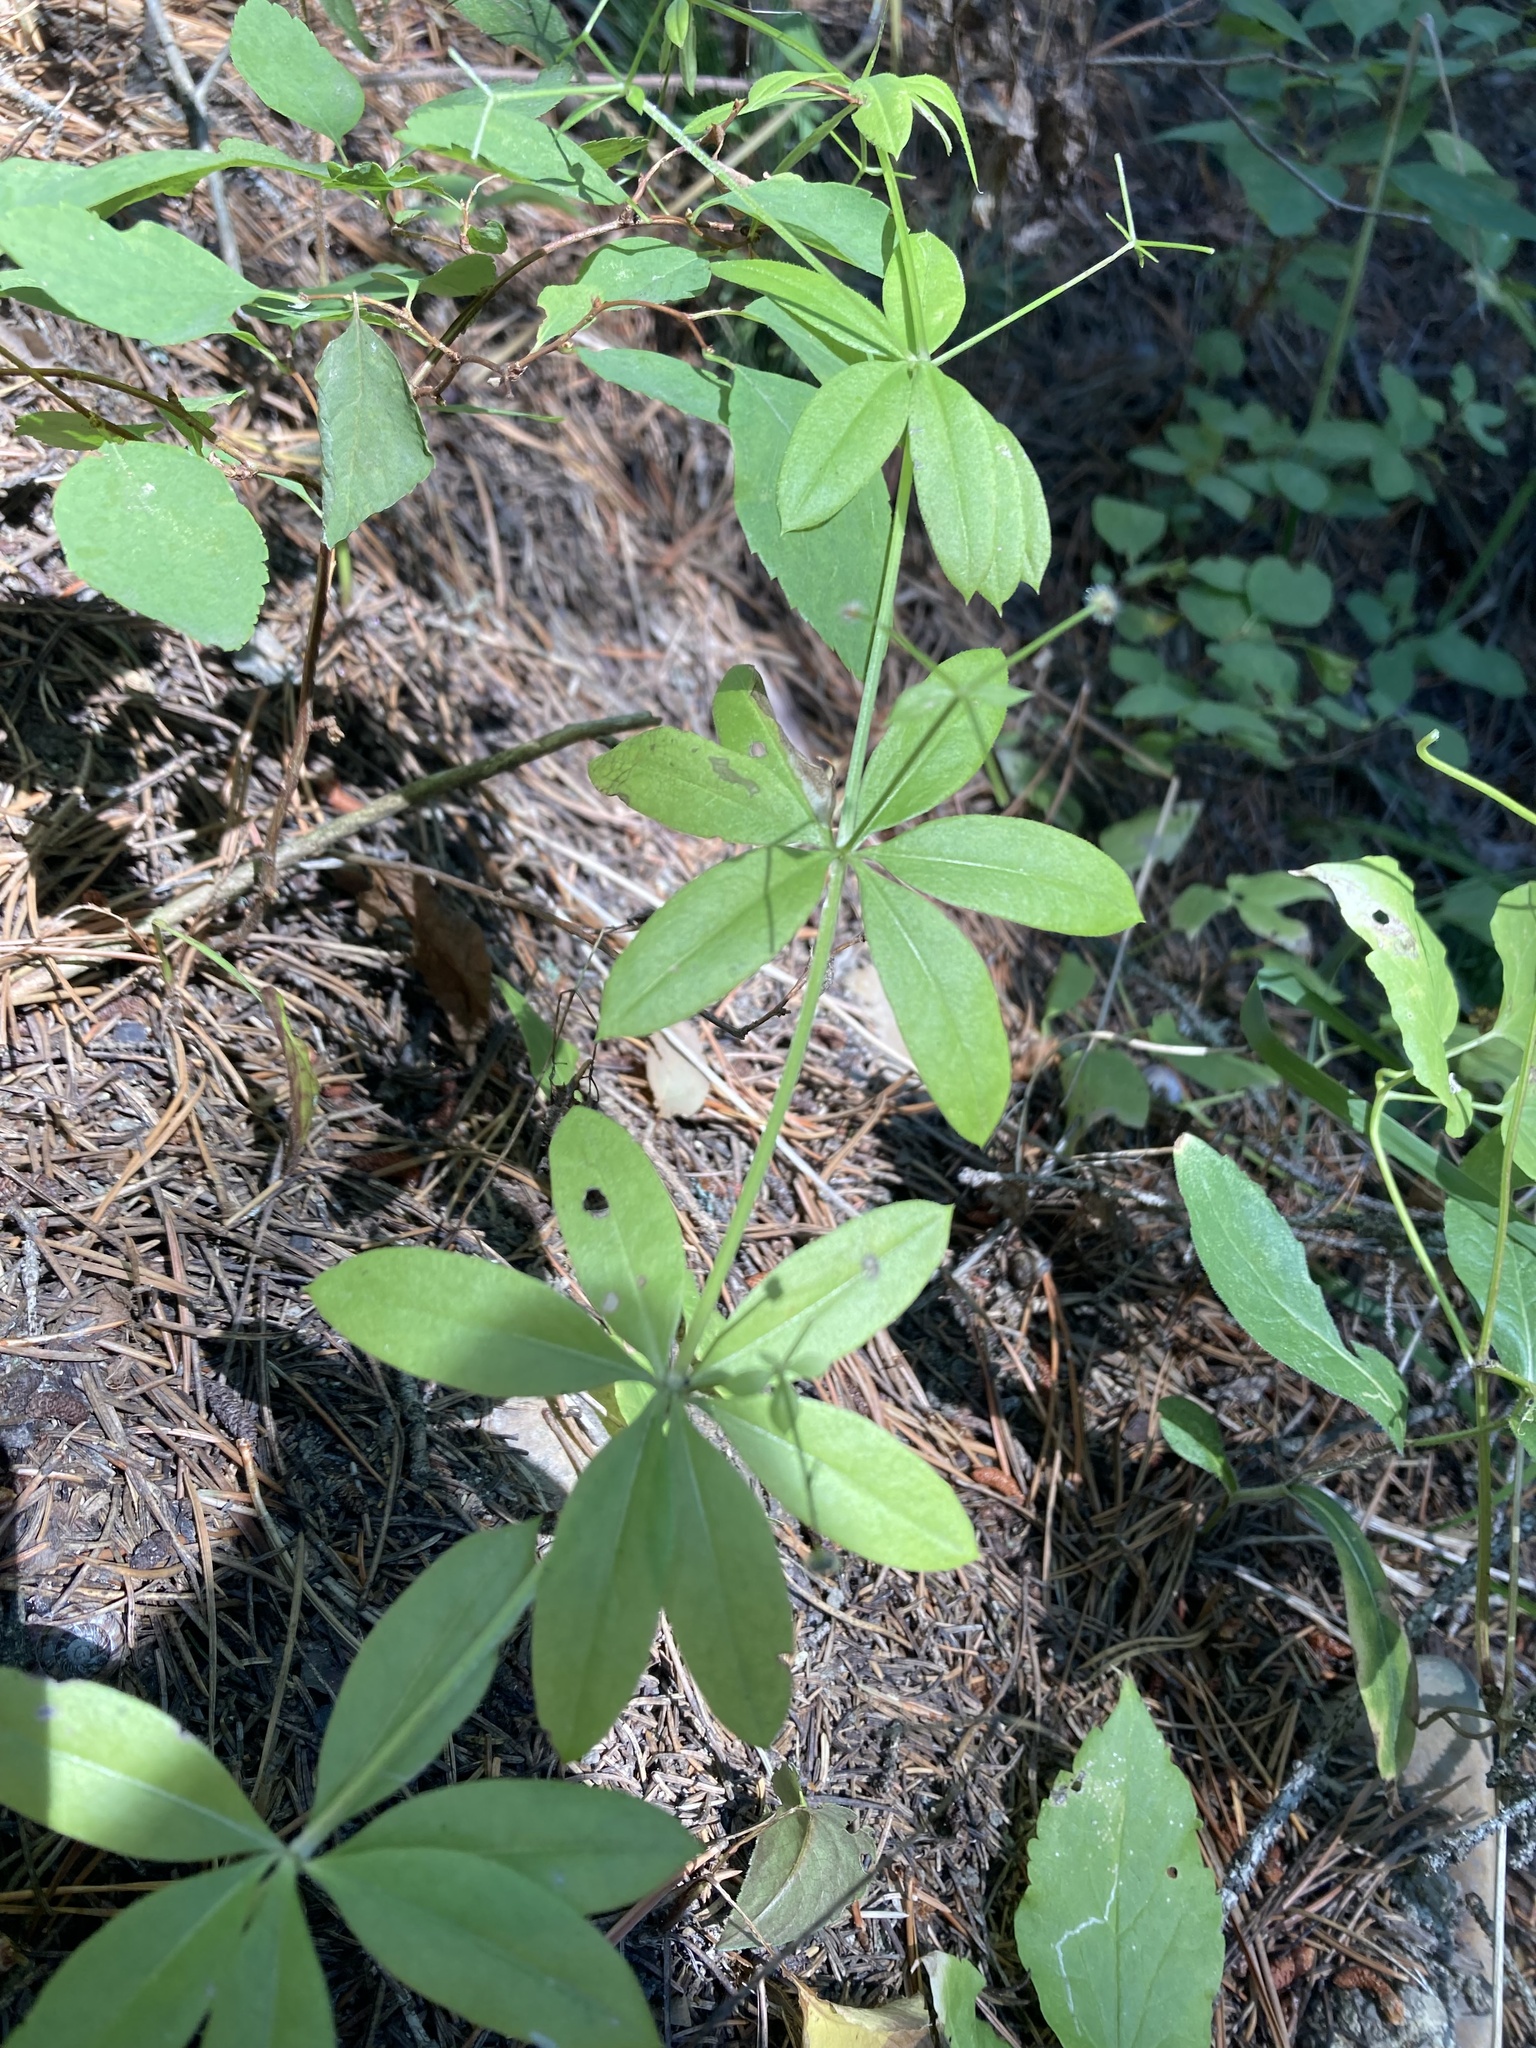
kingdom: Plantae
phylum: Tracheophyta
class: Magnoliopsida
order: Gentianales
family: Rubiaceae
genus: Galium
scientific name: Galium triflorum
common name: Fragrant bedstraw
